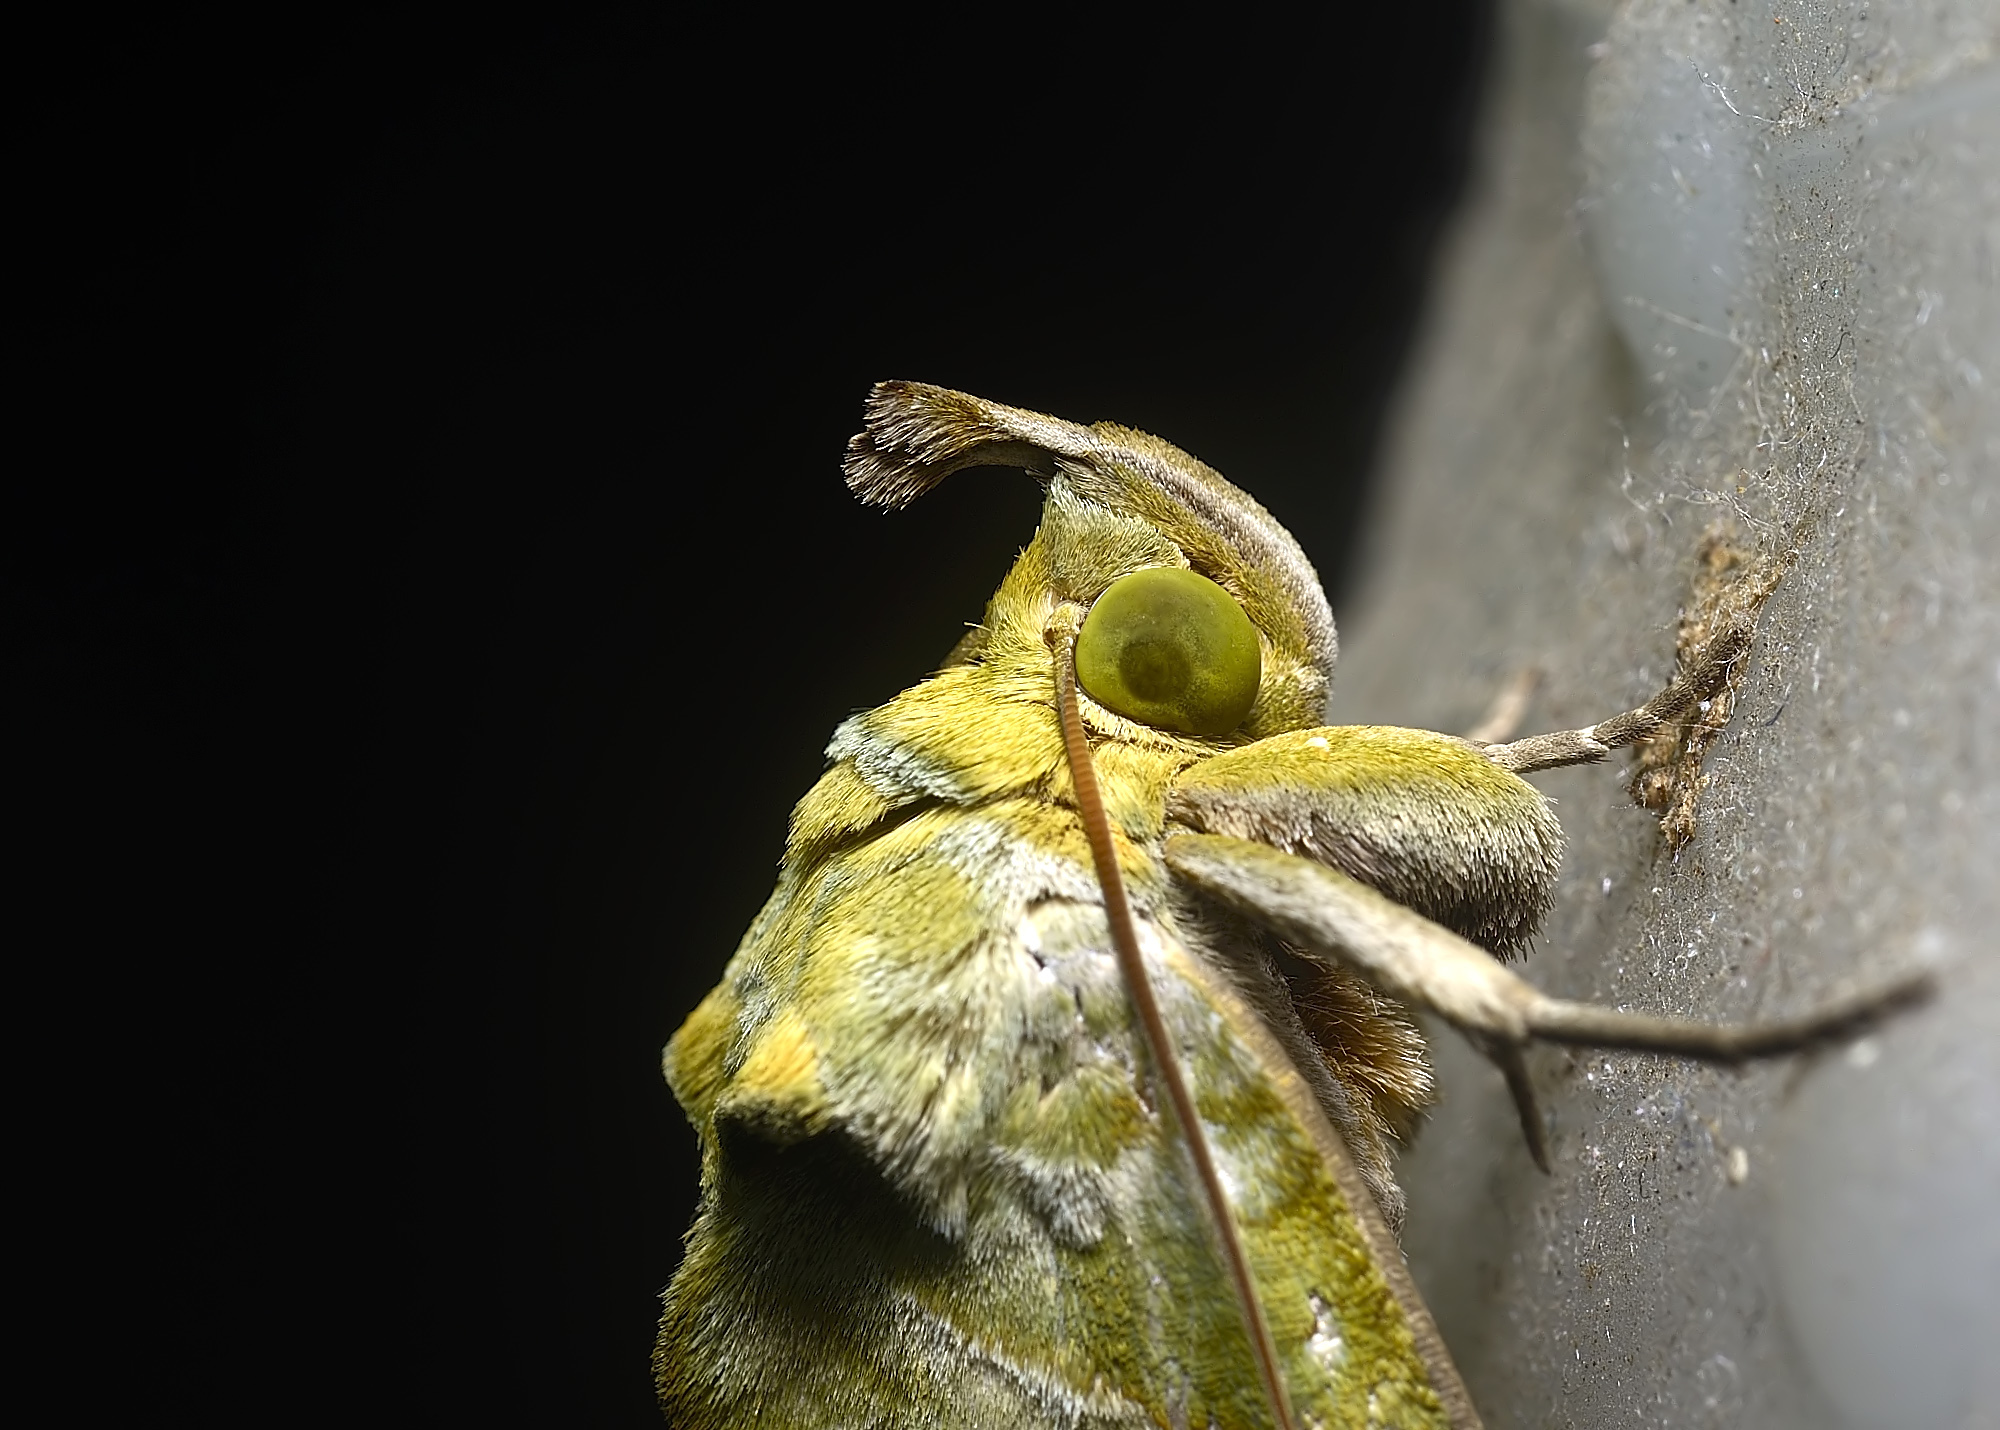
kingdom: Animalia
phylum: Arthropoda
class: Insecta
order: Lepidoptera
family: Erebidae
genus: Eudocima
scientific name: Eudocima hypermnestra
